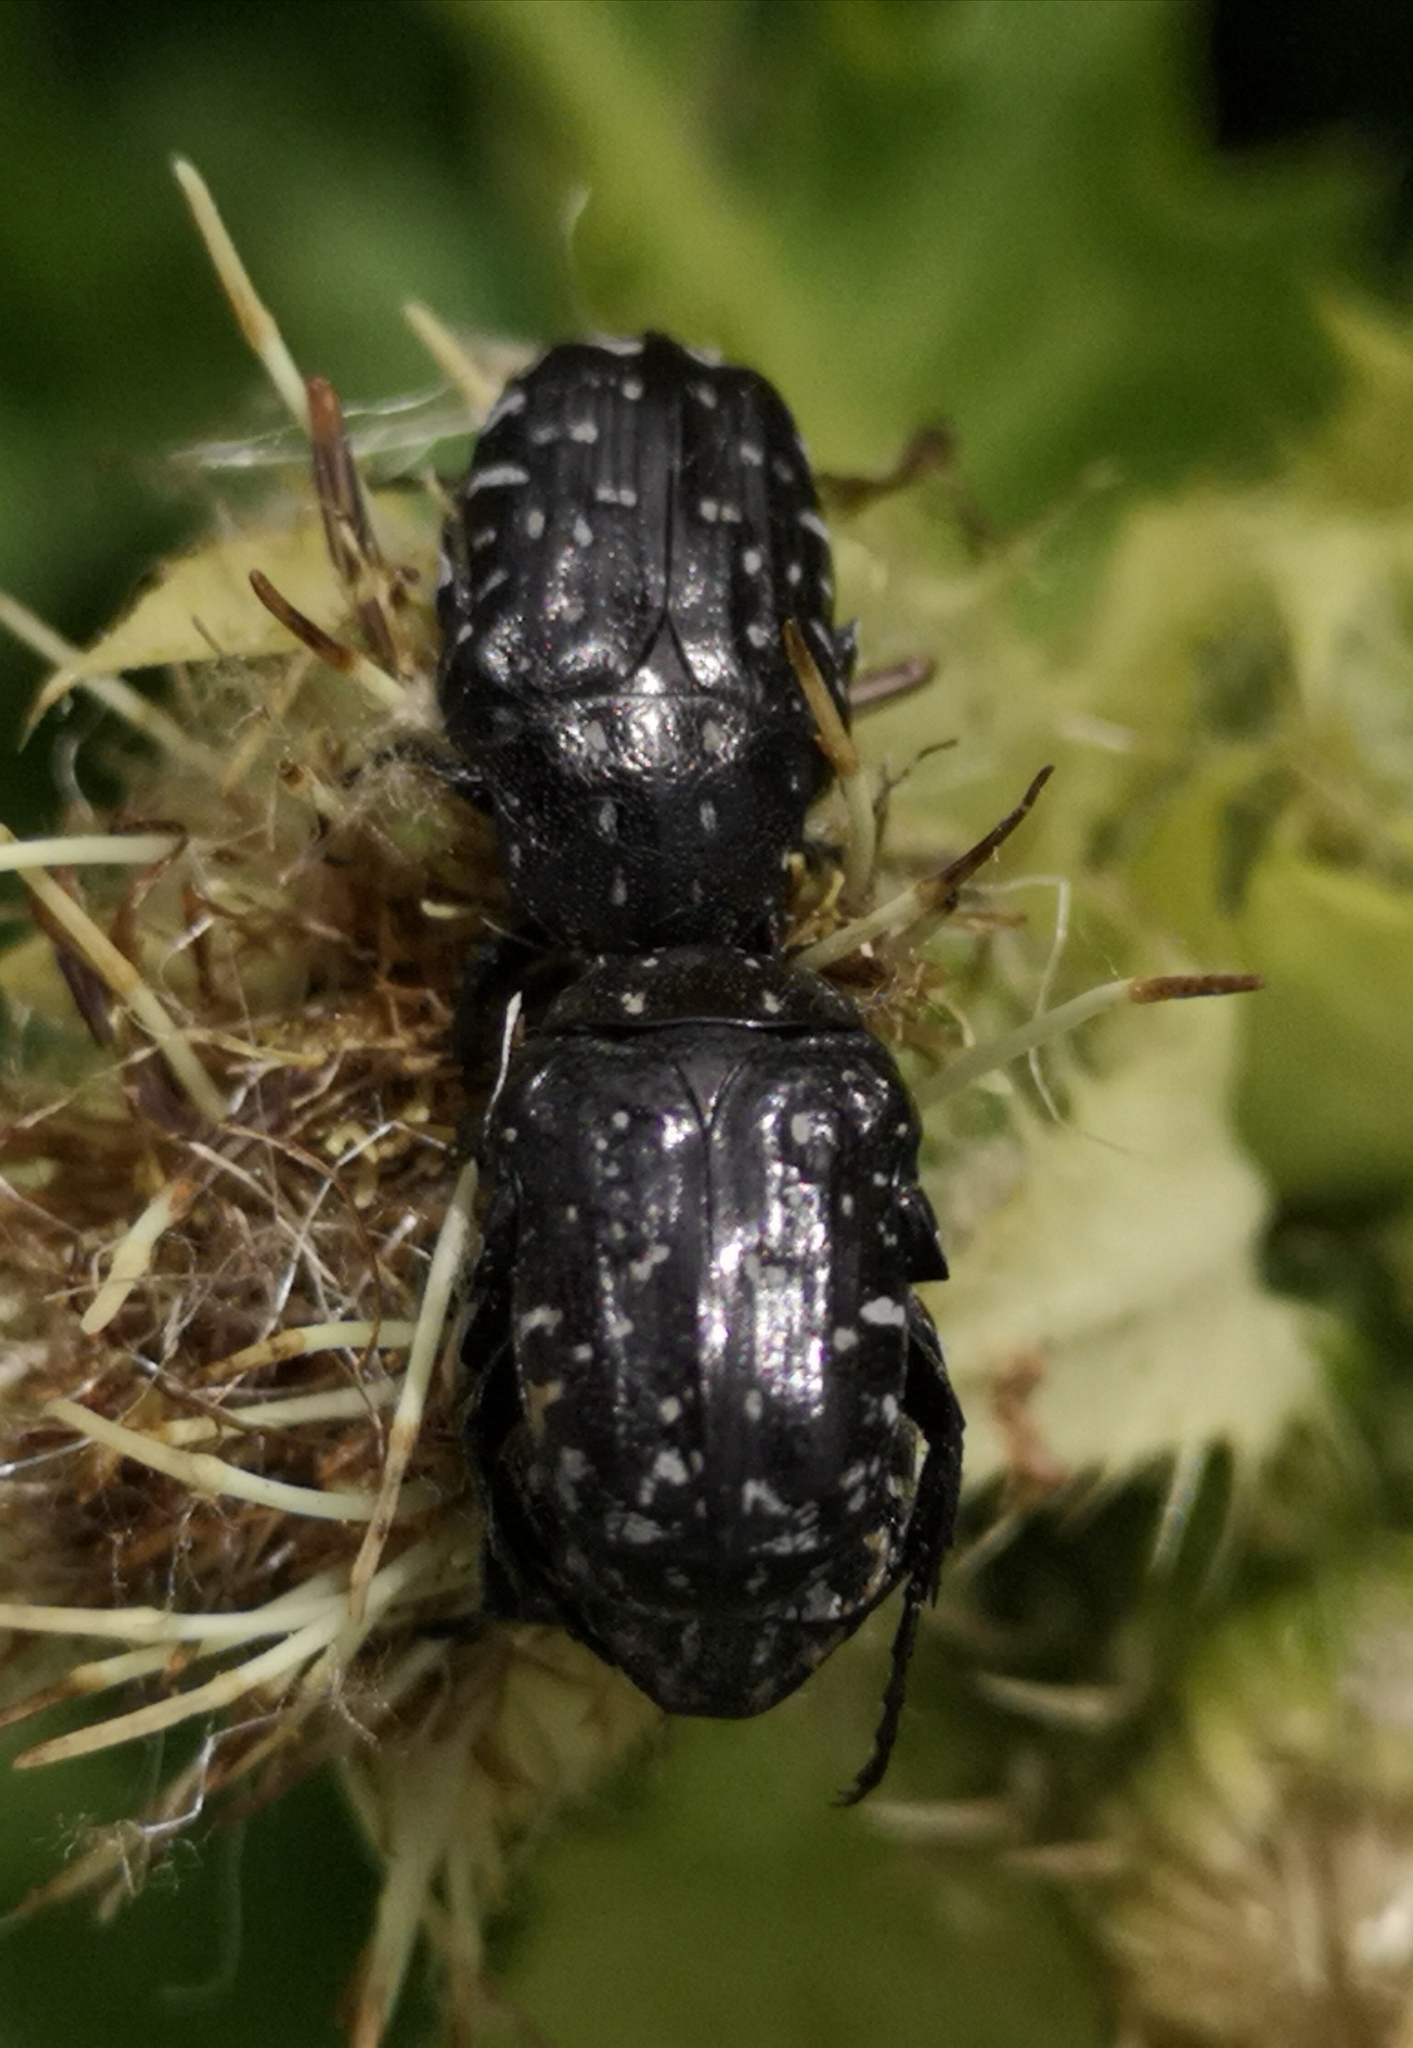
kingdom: Animalia
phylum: Arthropoda
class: Insecta
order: Coleoptera
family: Scarabaeidae
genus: Oxythyrea
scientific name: Oxythyrea funesta
